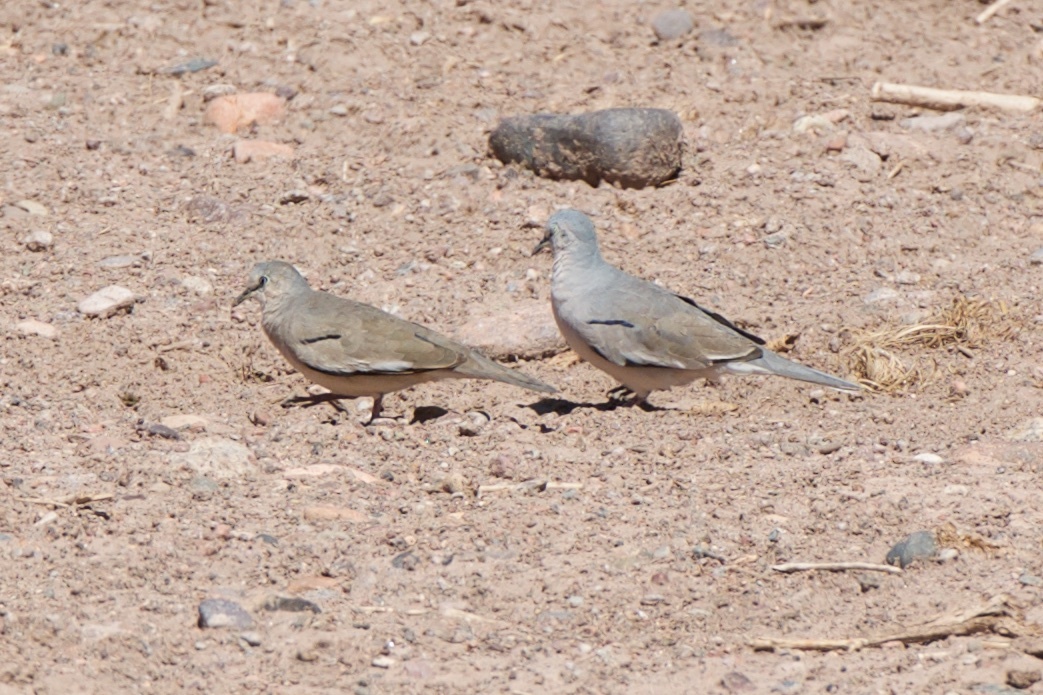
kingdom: Animalia
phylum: Chordata
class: Aves
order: Columbiformes
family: Columbidae
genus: Columbina
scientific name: Columbina picui
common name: Picui ground dove
